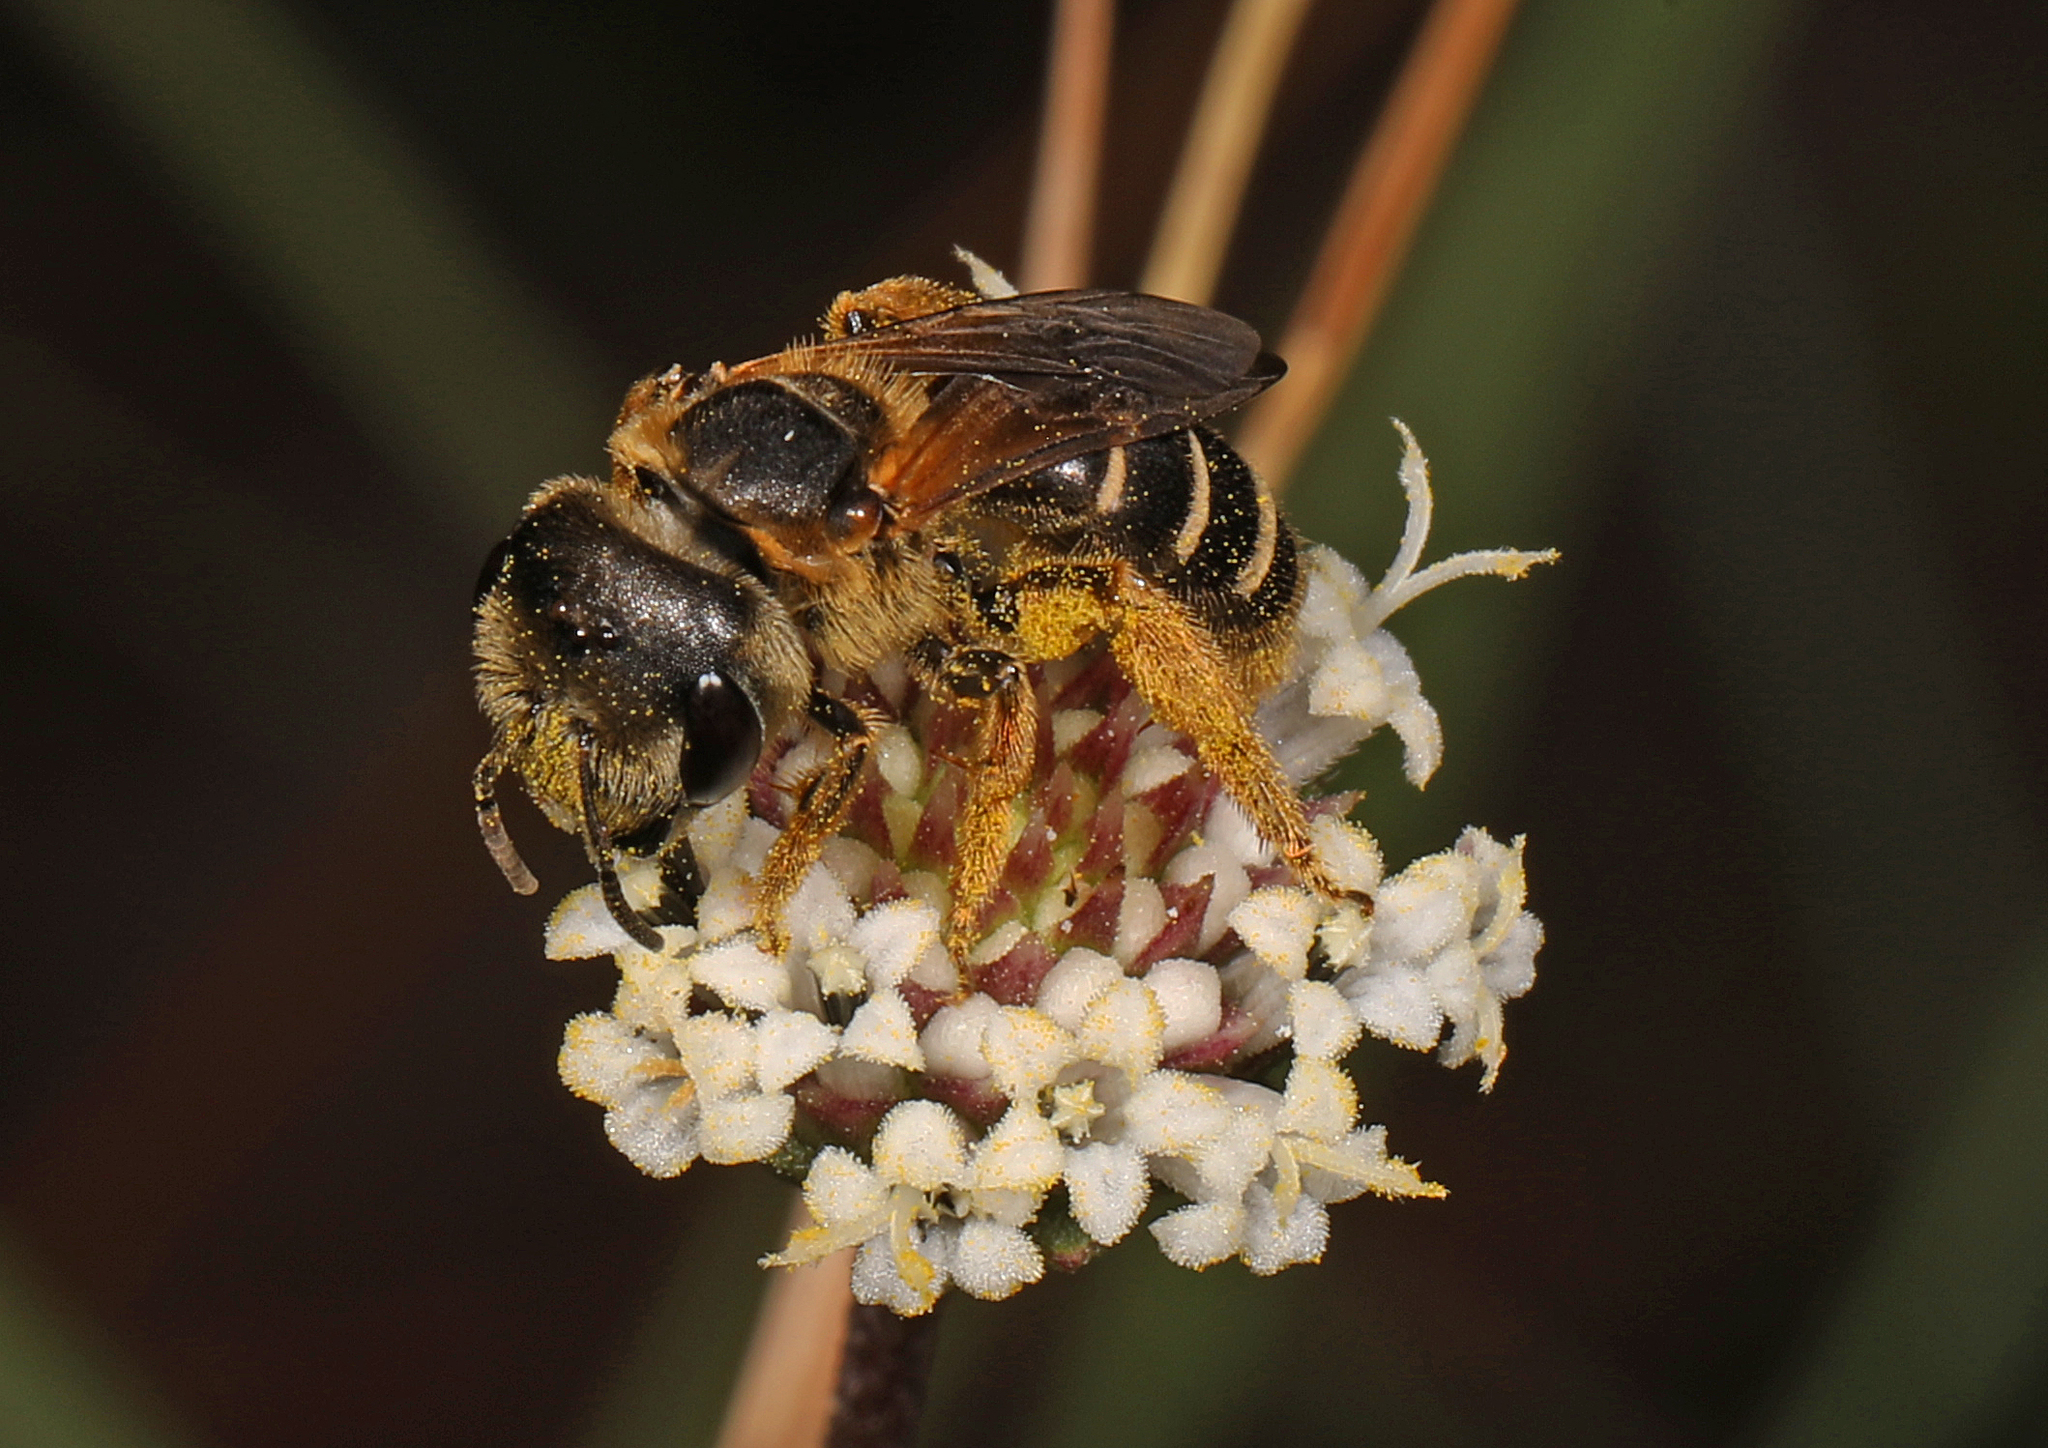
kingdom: Animalia
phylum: Arthropoda
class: Insecta
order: Hymenoptera
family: Halictidae
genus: Halictus
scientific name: Halictus poeyi
